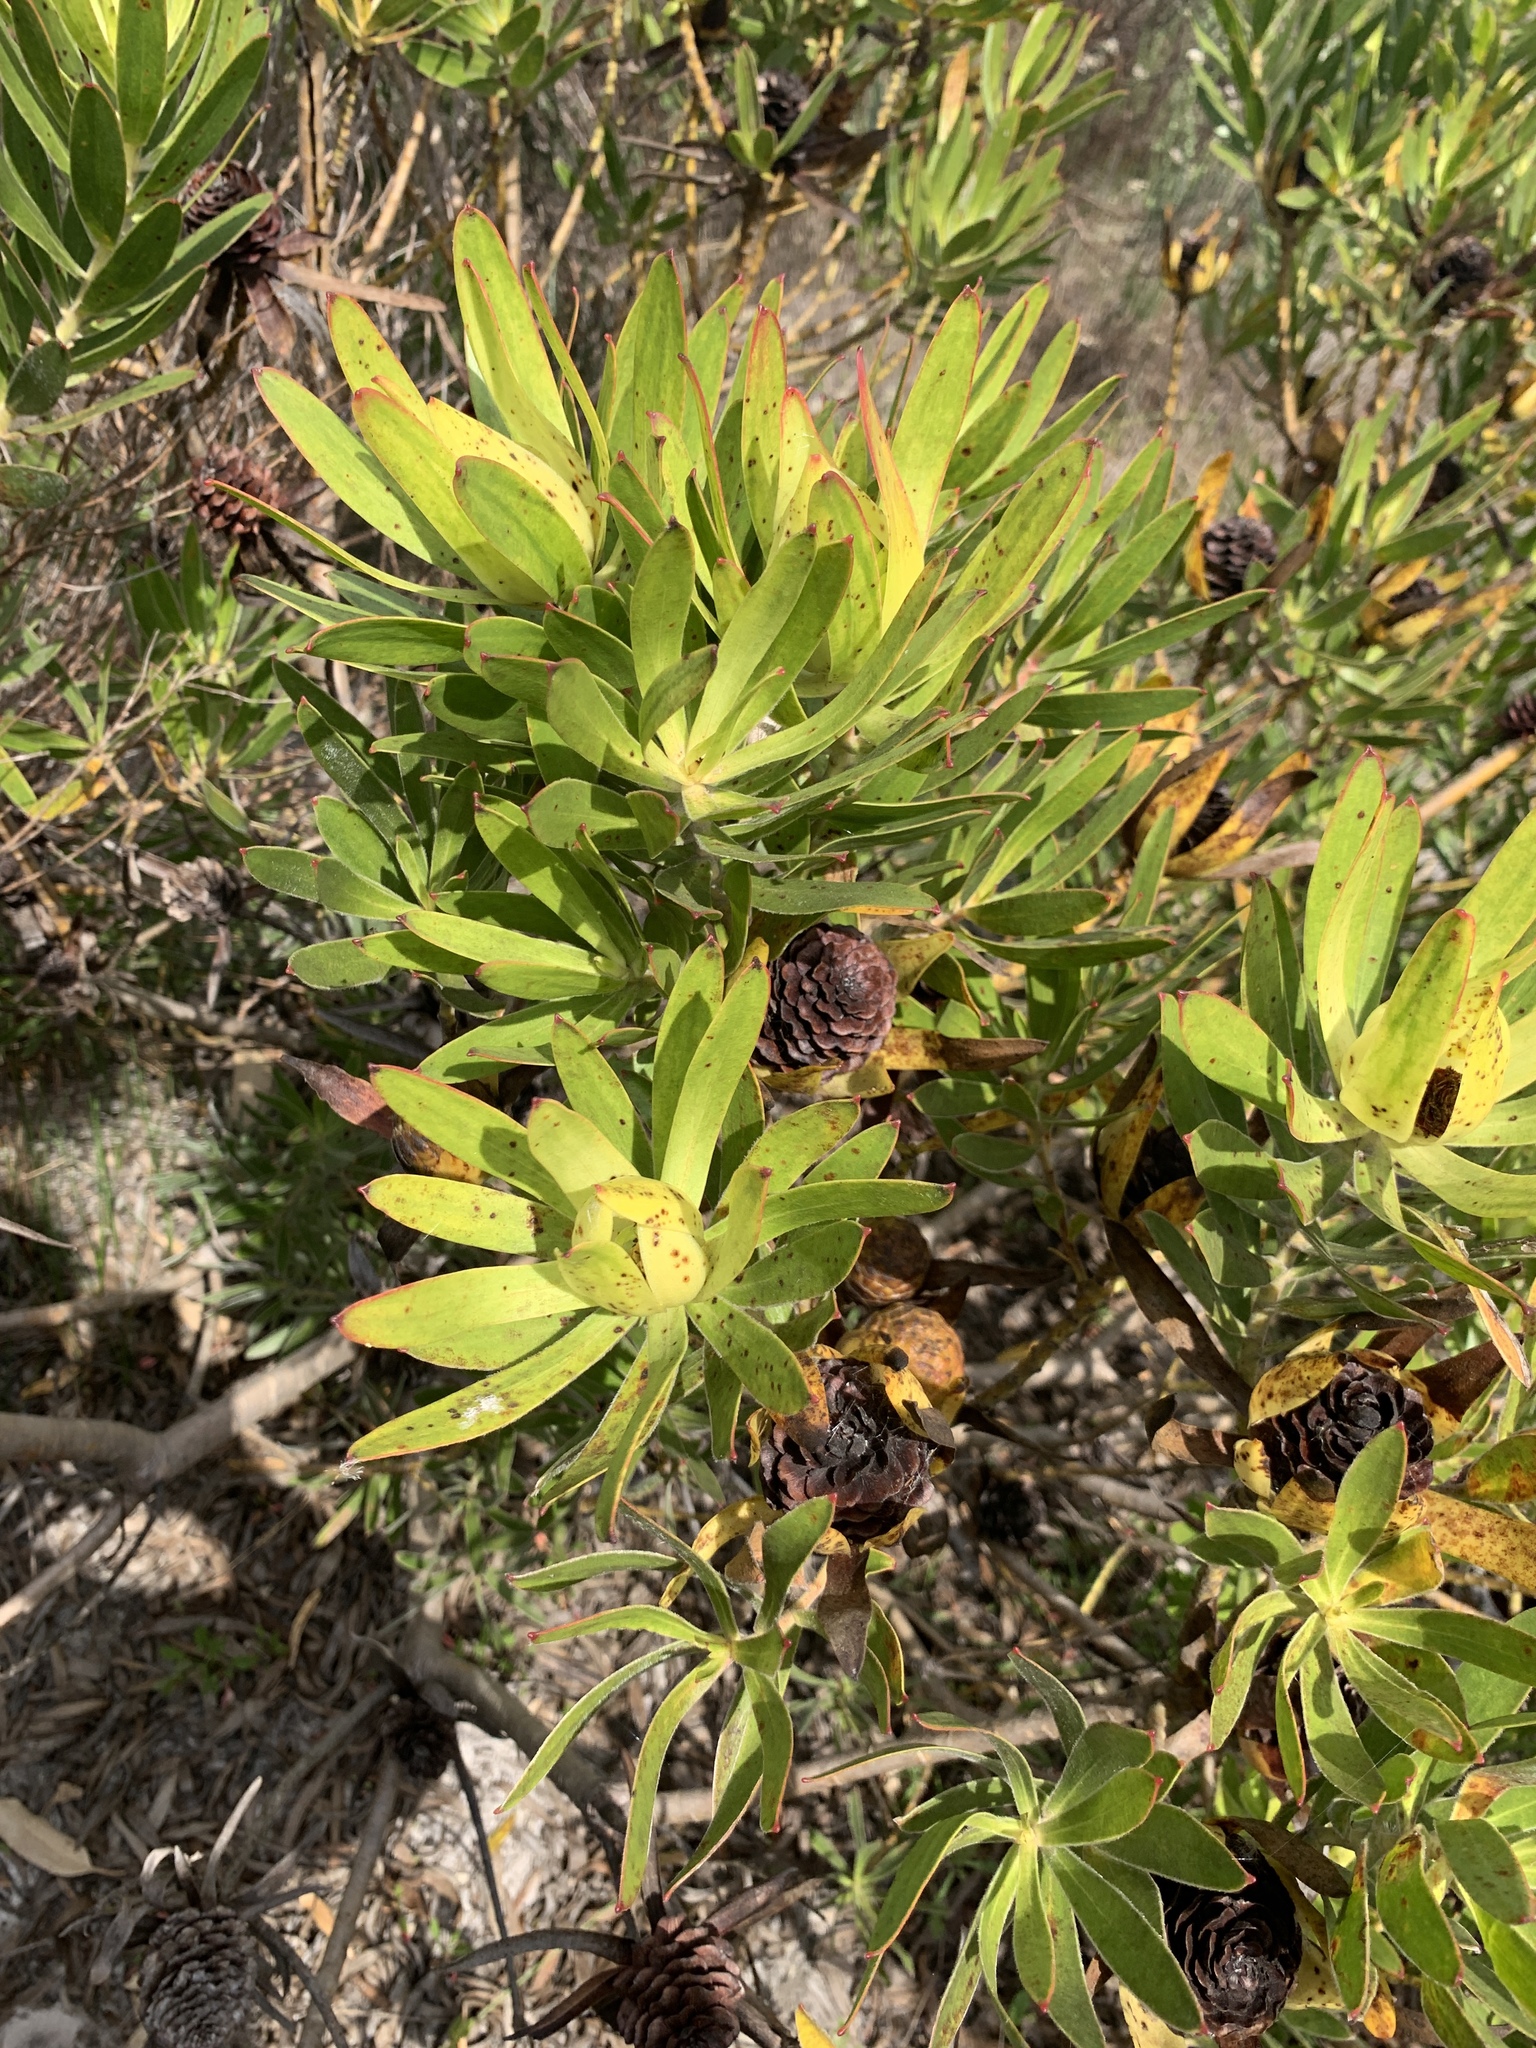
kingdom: Plantae
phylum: Tracheophyta
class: Magnoliopsida
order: Proteales
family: Proteaceae
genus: Leucadendron
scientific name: Leucadendron laureolum
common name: Golden sunshinebush
